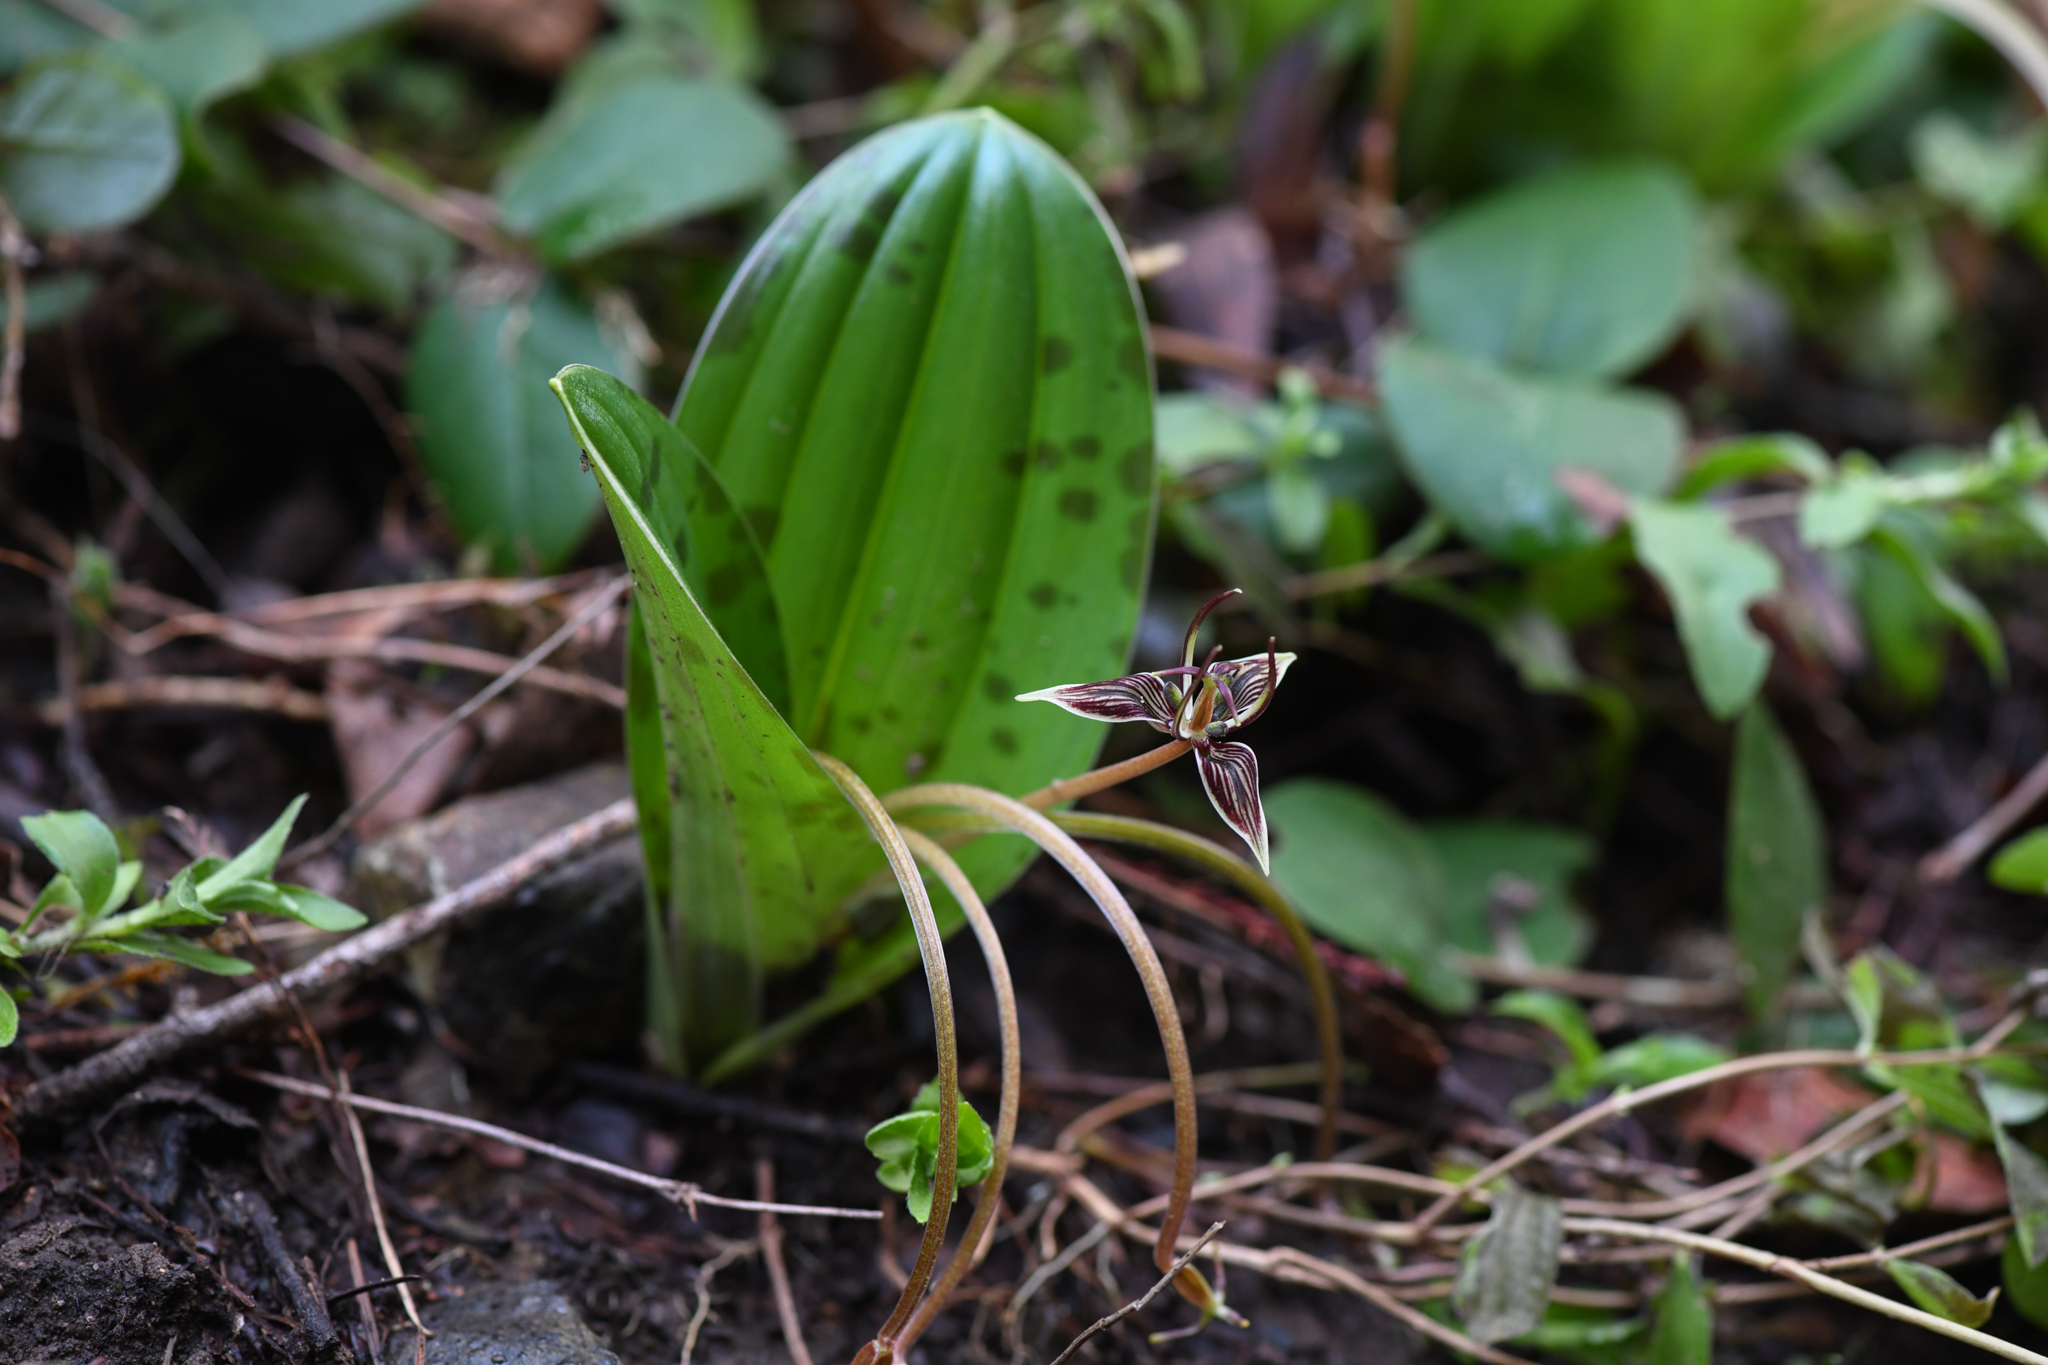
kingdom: Plantae
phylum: Tracheophyta
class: Liliopsida
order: Liliales
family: Liliaceae
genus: Scoliopus
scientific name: Scoliopus bigelovii
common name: Foetid adder's-tongue
